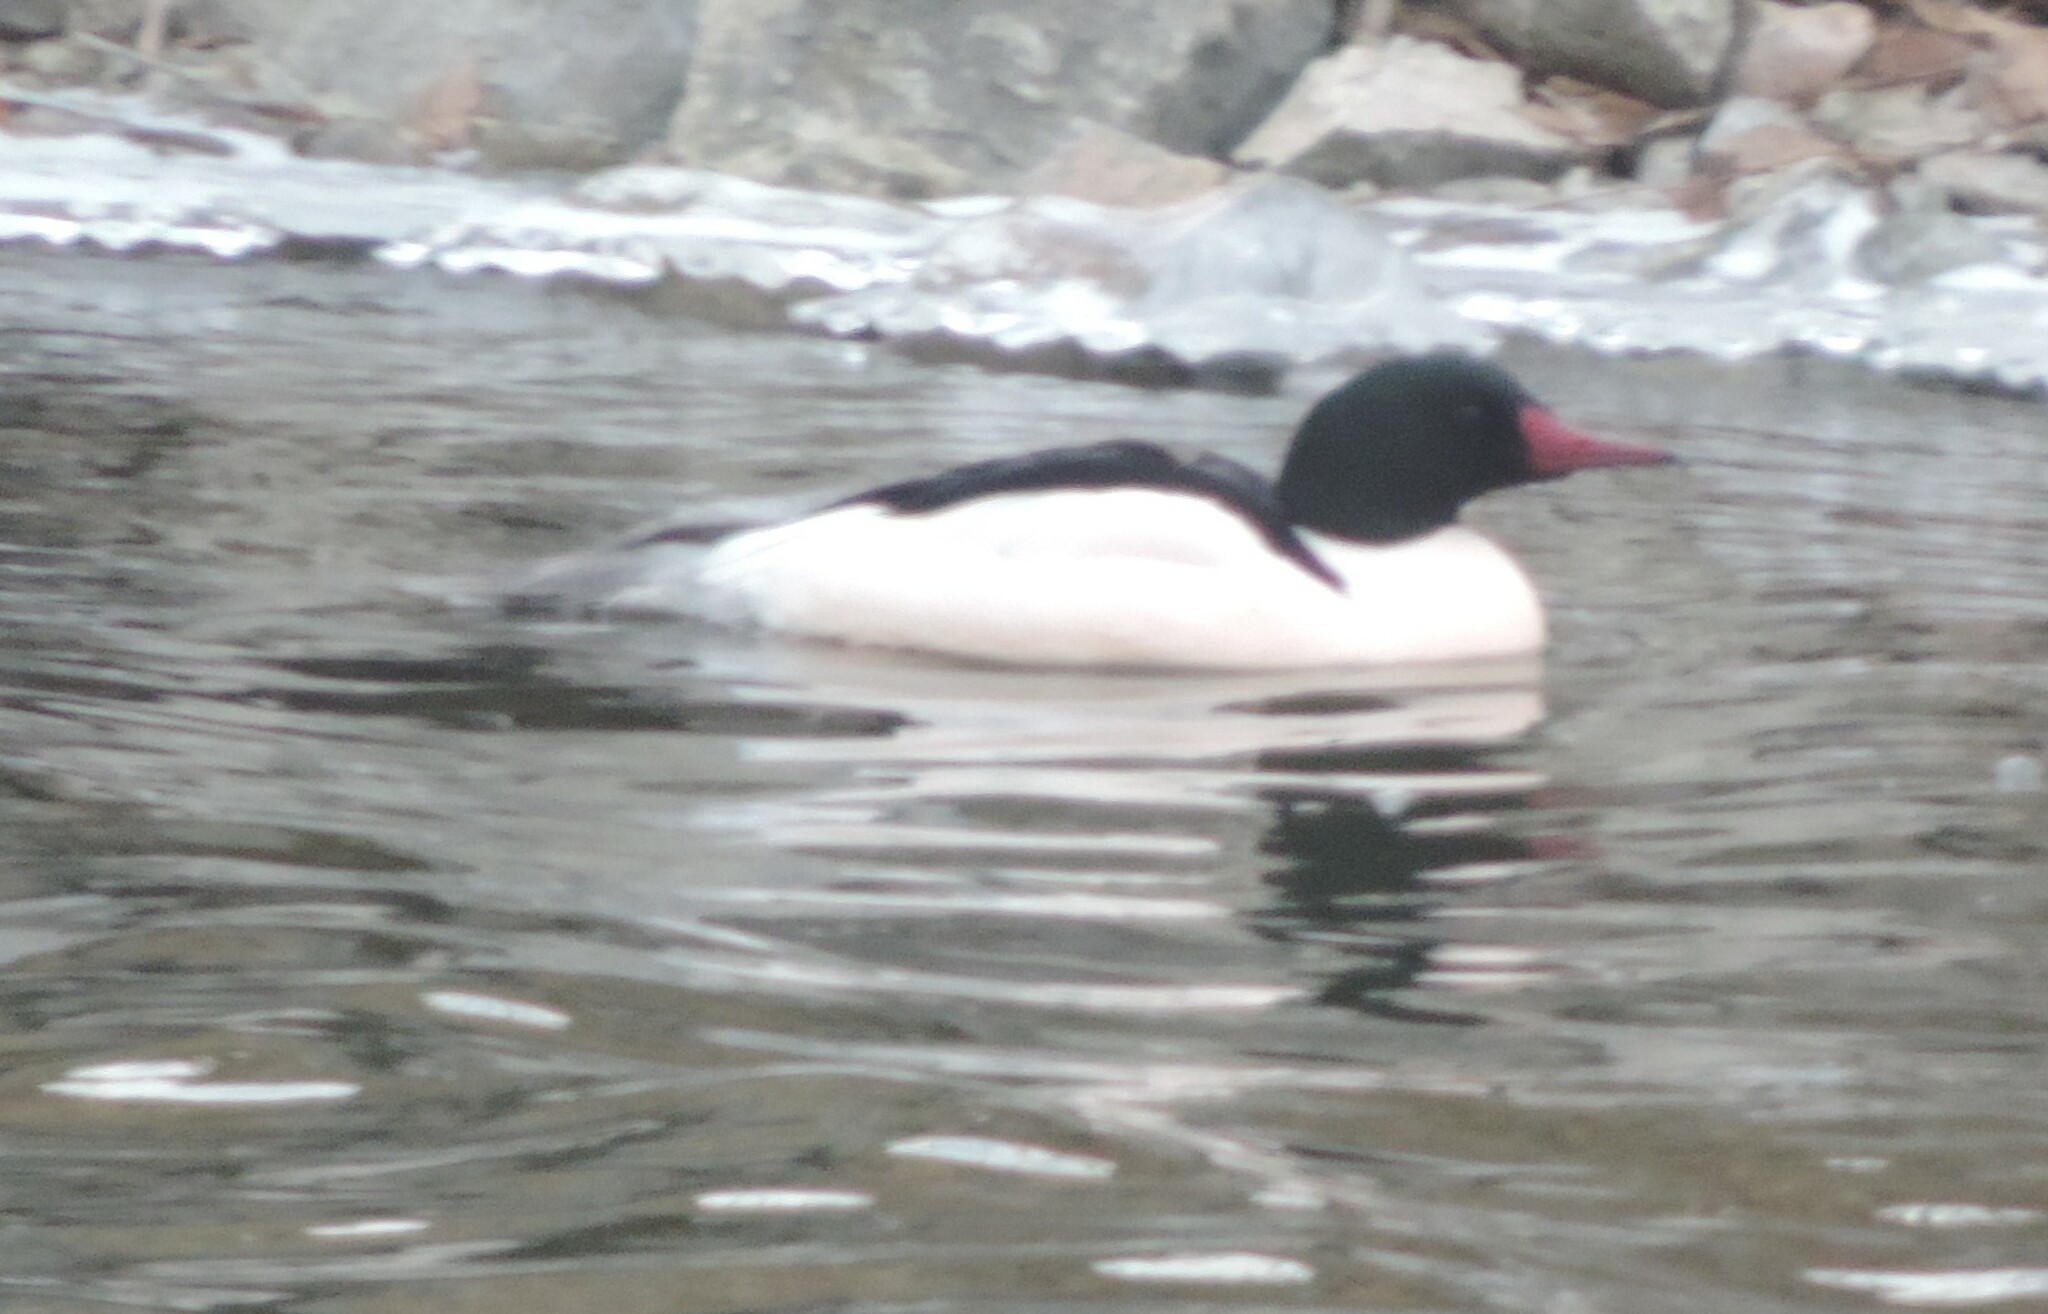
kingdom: Animalia
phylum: Chordata
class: Aves
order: Anseriformes
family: Anatidae
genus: Mergus
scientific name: Mergus merganser
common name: Common merganser
